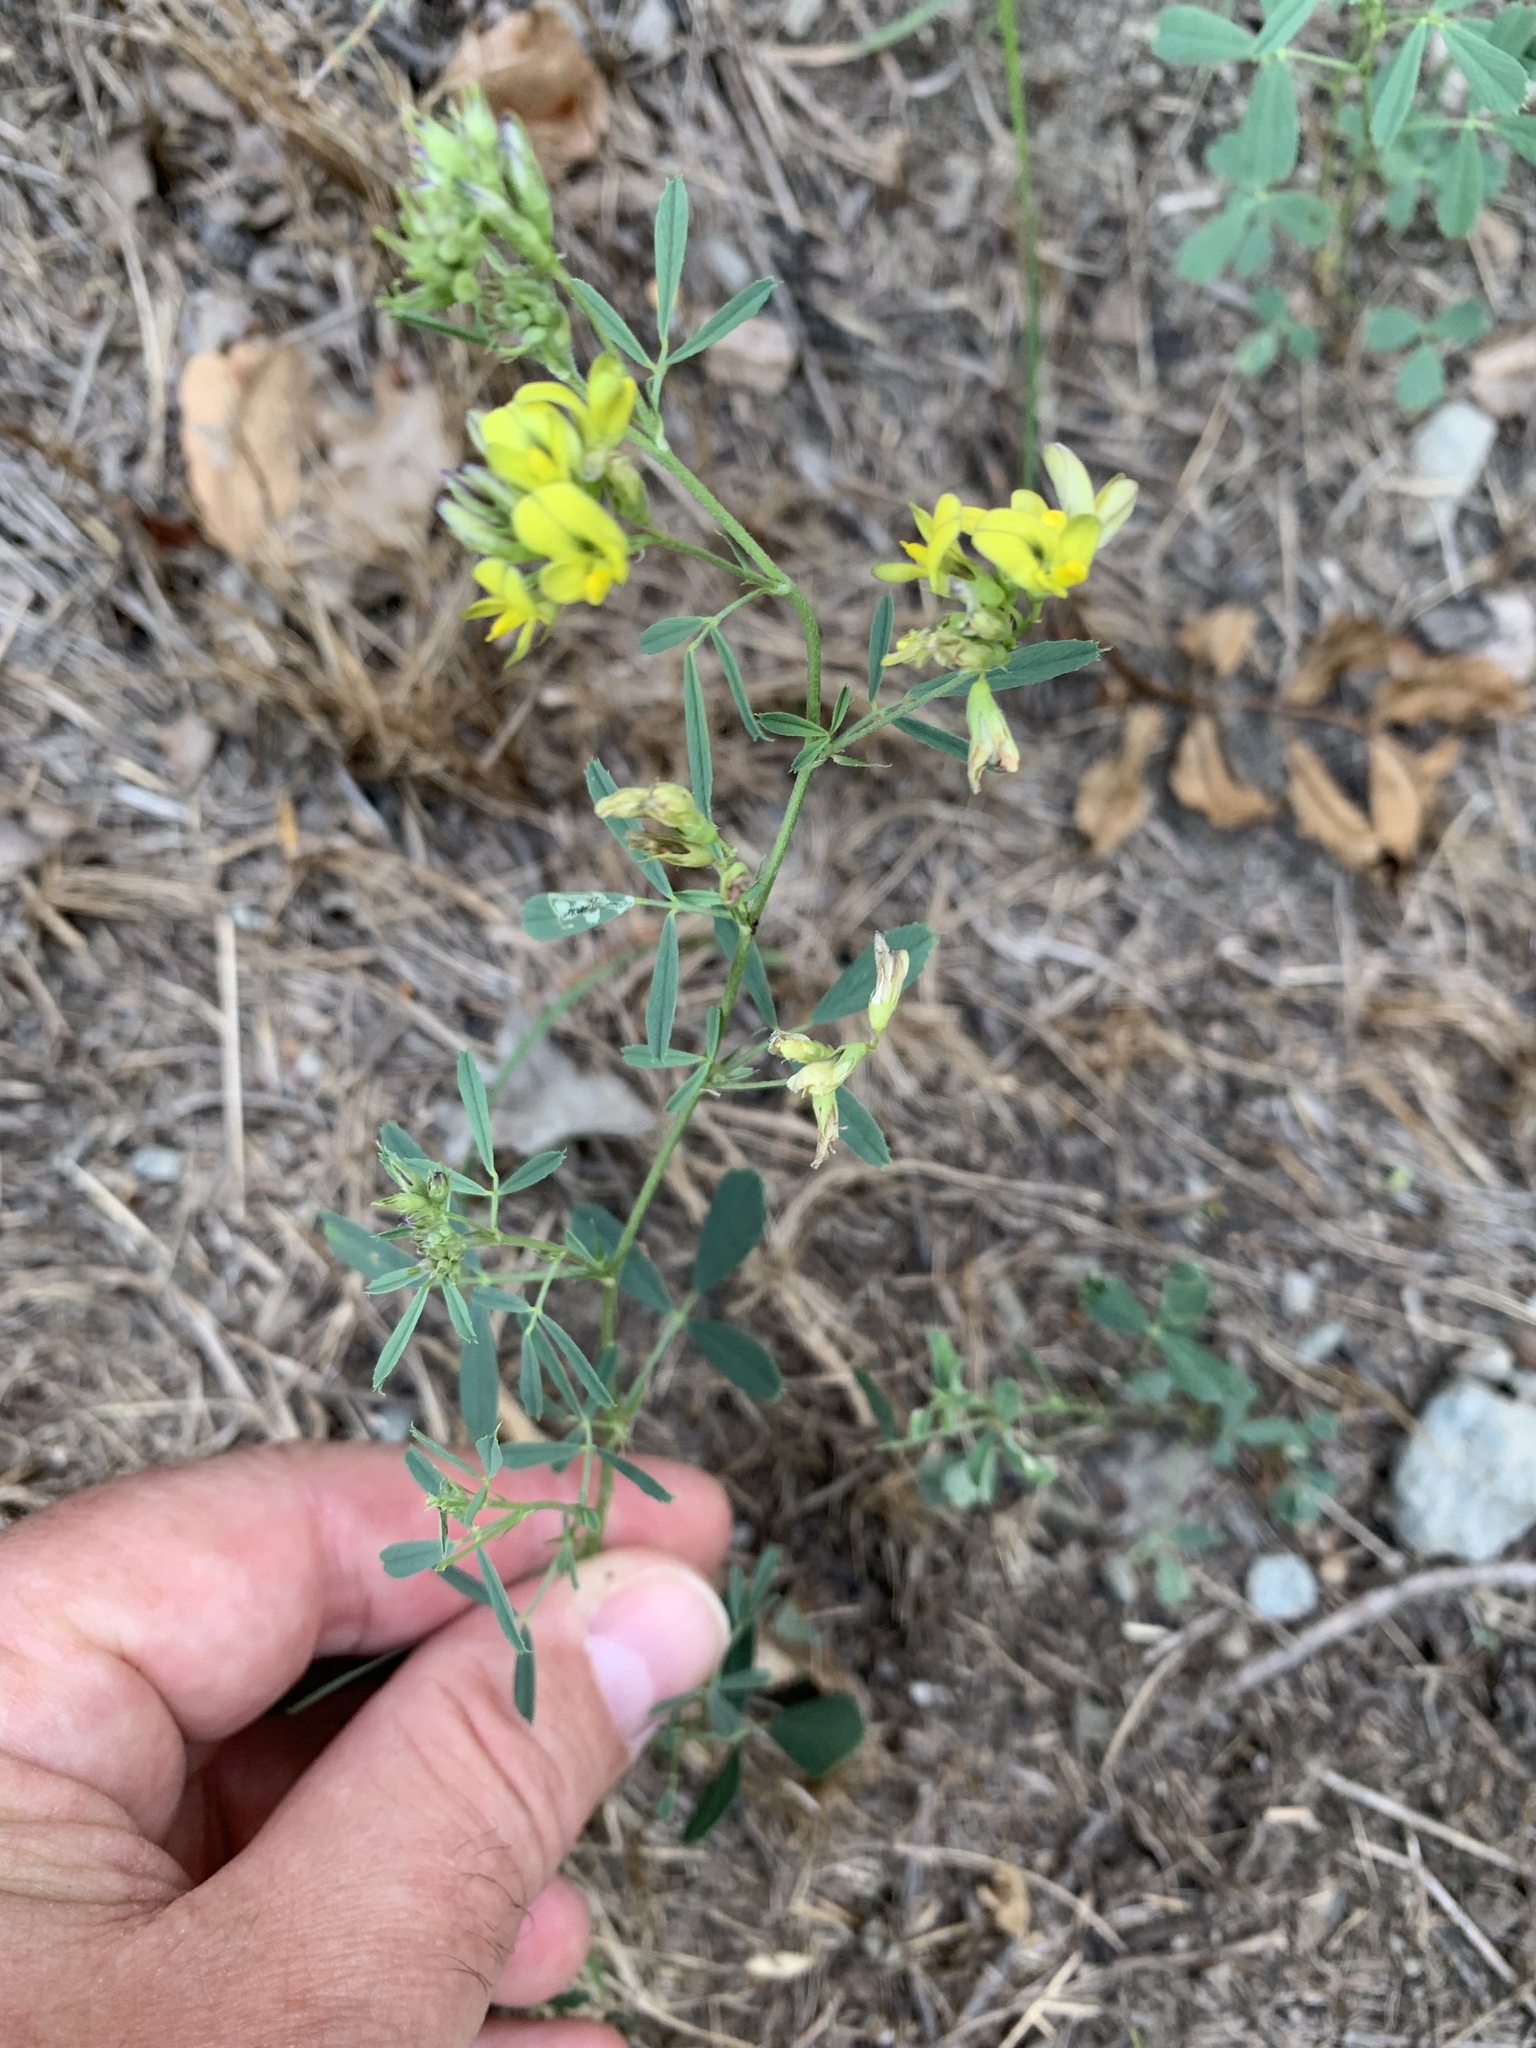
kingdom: Plantae
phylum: Tracheophyta
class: Magnoliopsida
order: Fabales
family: Fabaceae
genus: Medicago
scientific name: Medicago falcata
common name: Sickle medick
